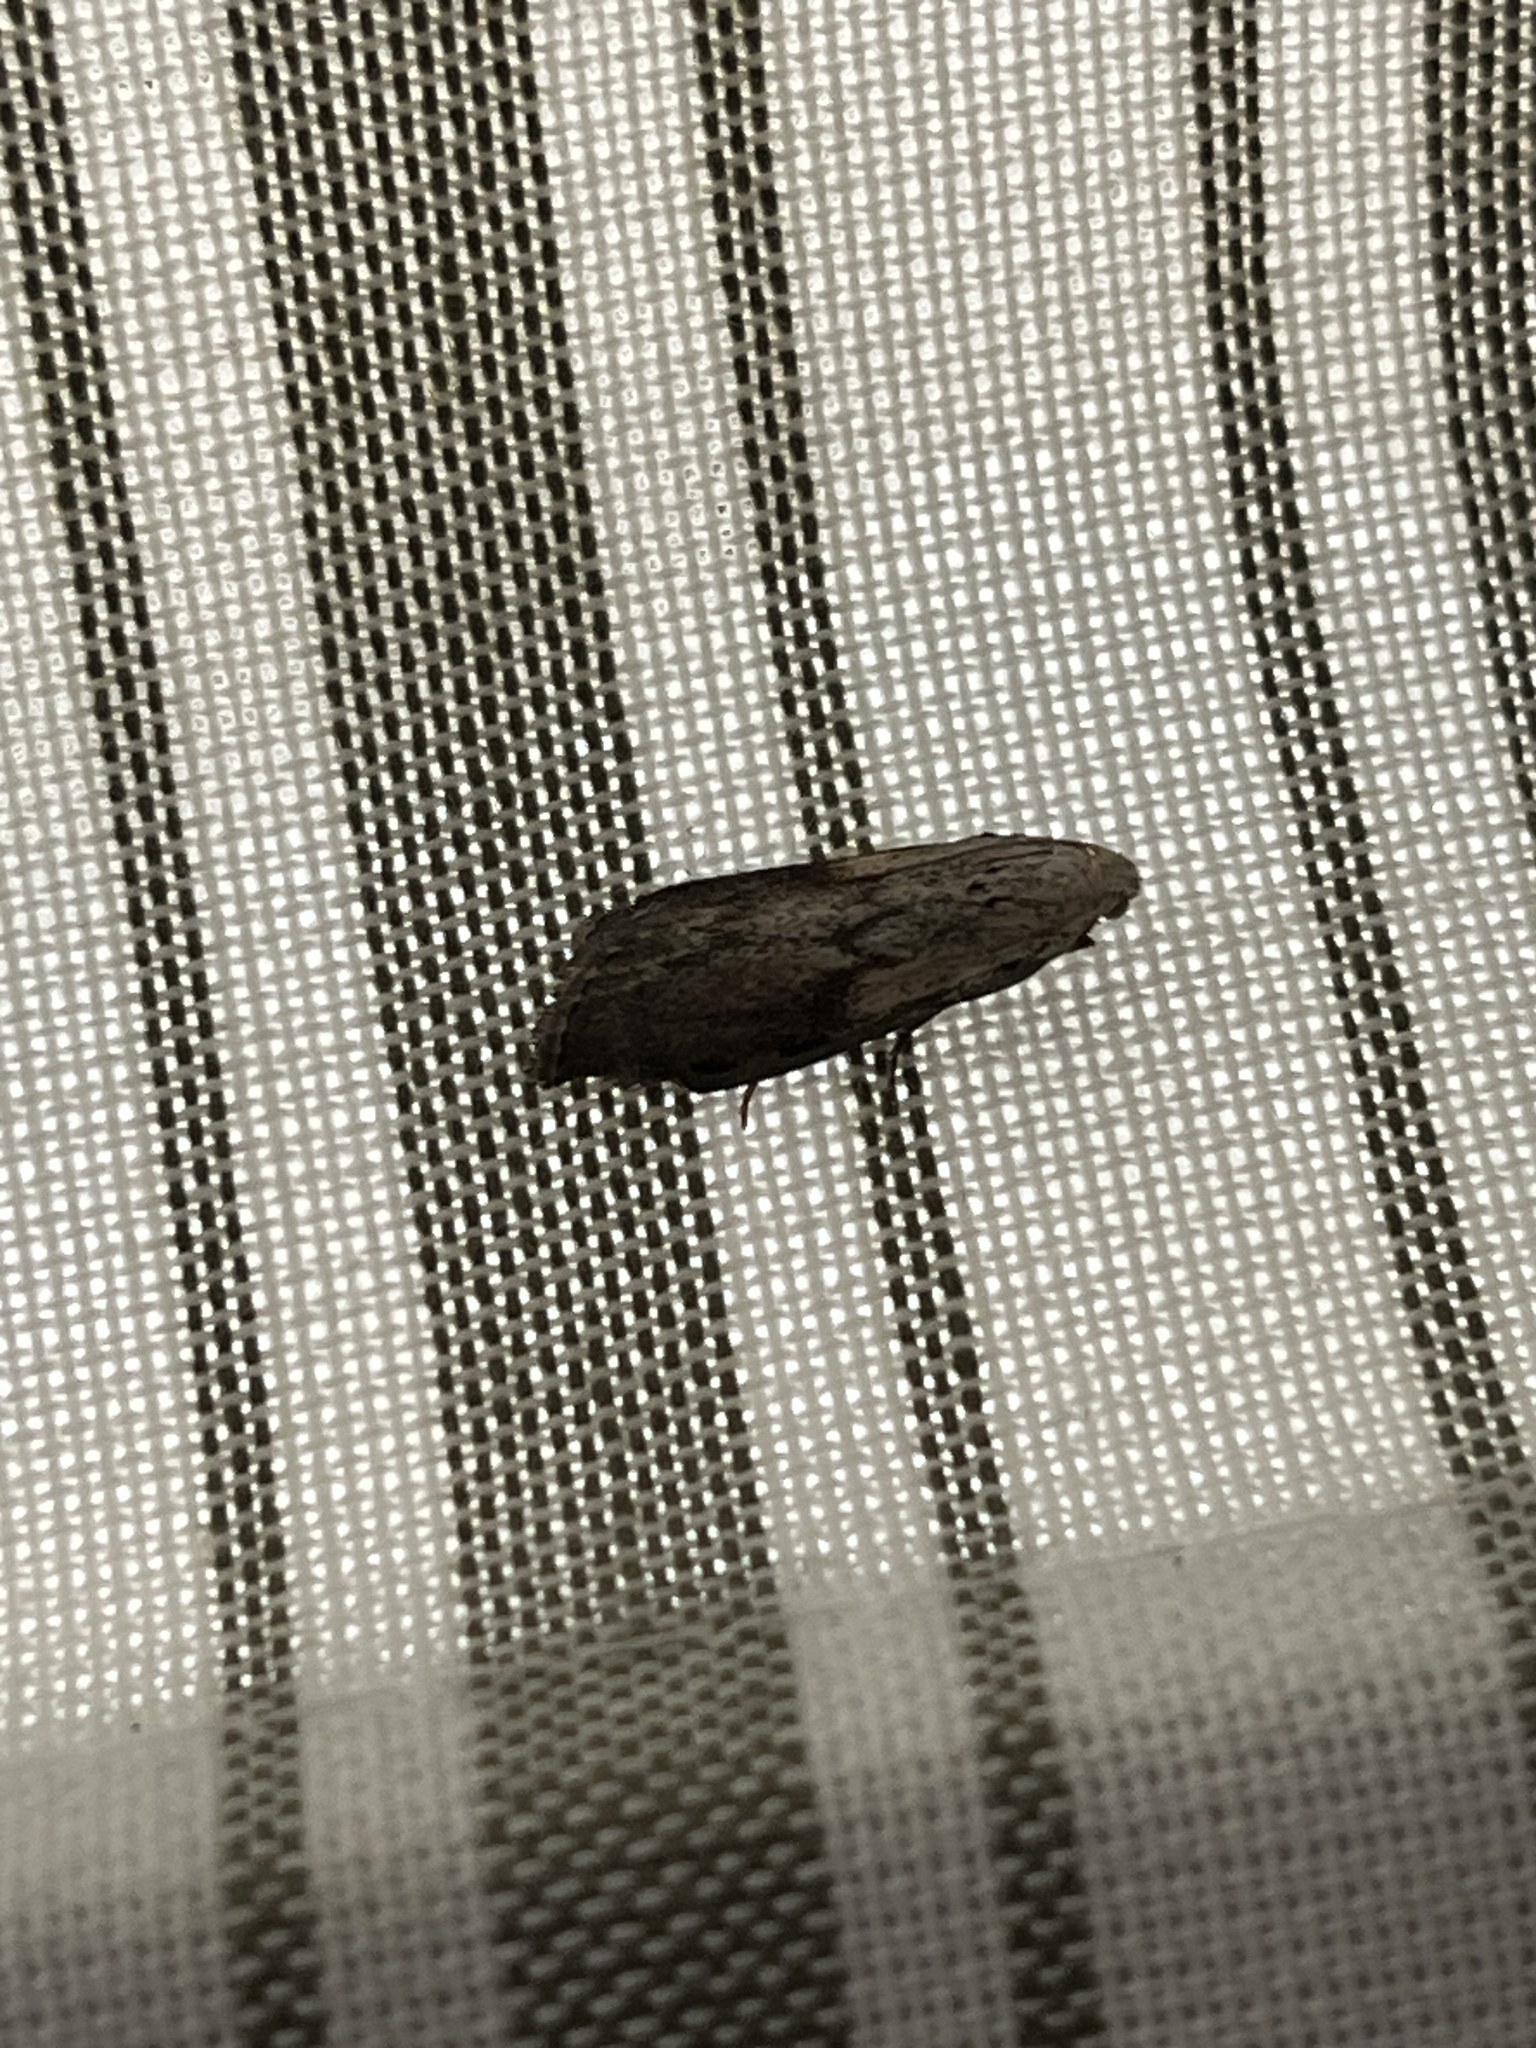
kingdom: Animalia
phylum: Arthropoda
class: Insecta
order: Lepidoptera
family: Pyralidae
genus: Aphomia
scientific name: Aphomia sociella
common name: Bee moth
